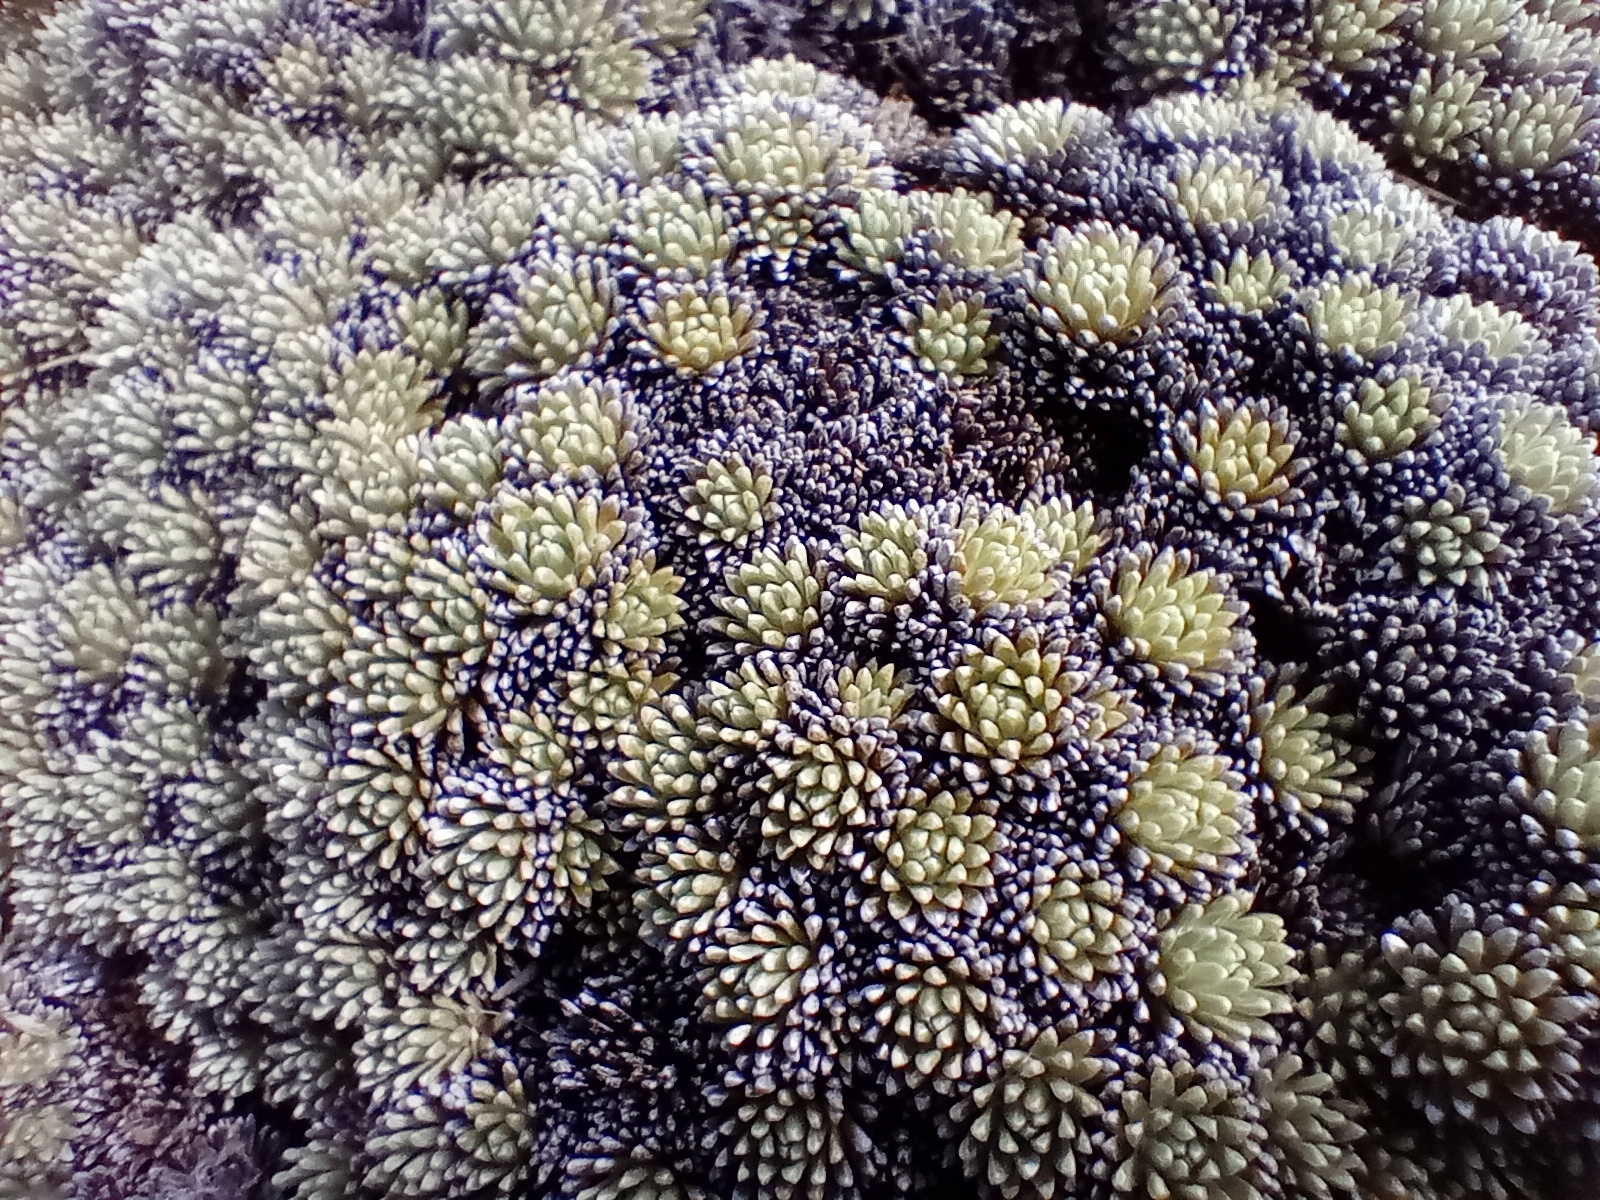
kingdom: Plantae
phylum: Tracheophyta
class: Magnoliopsida
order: Asterales
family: Asteraceae
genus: Celmisia
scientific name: Celmisia argentea
